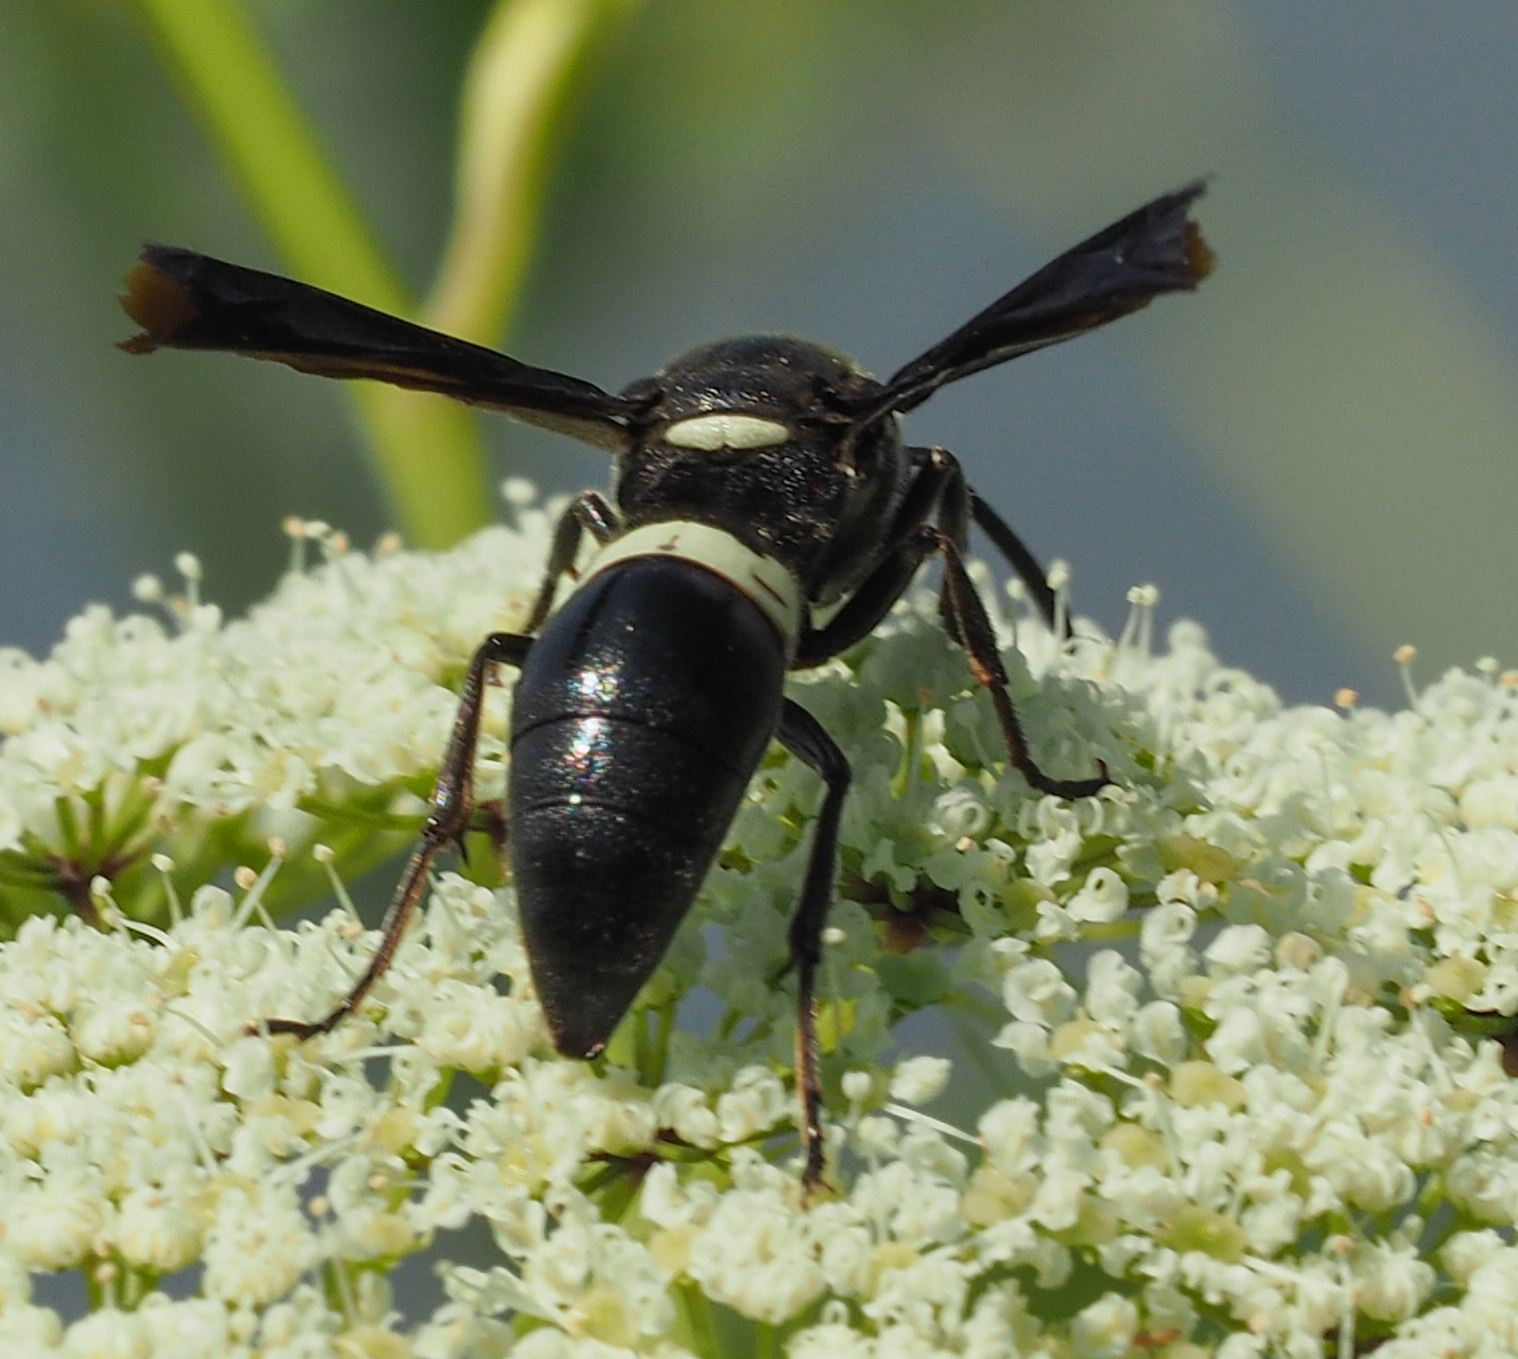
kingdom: Animalia
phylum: Arthropoda
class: Insecta
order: Hymenoptera
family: Eumenidae
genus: Monobia
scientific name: Monobia quadridens
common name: Four-toothed mason wasp
